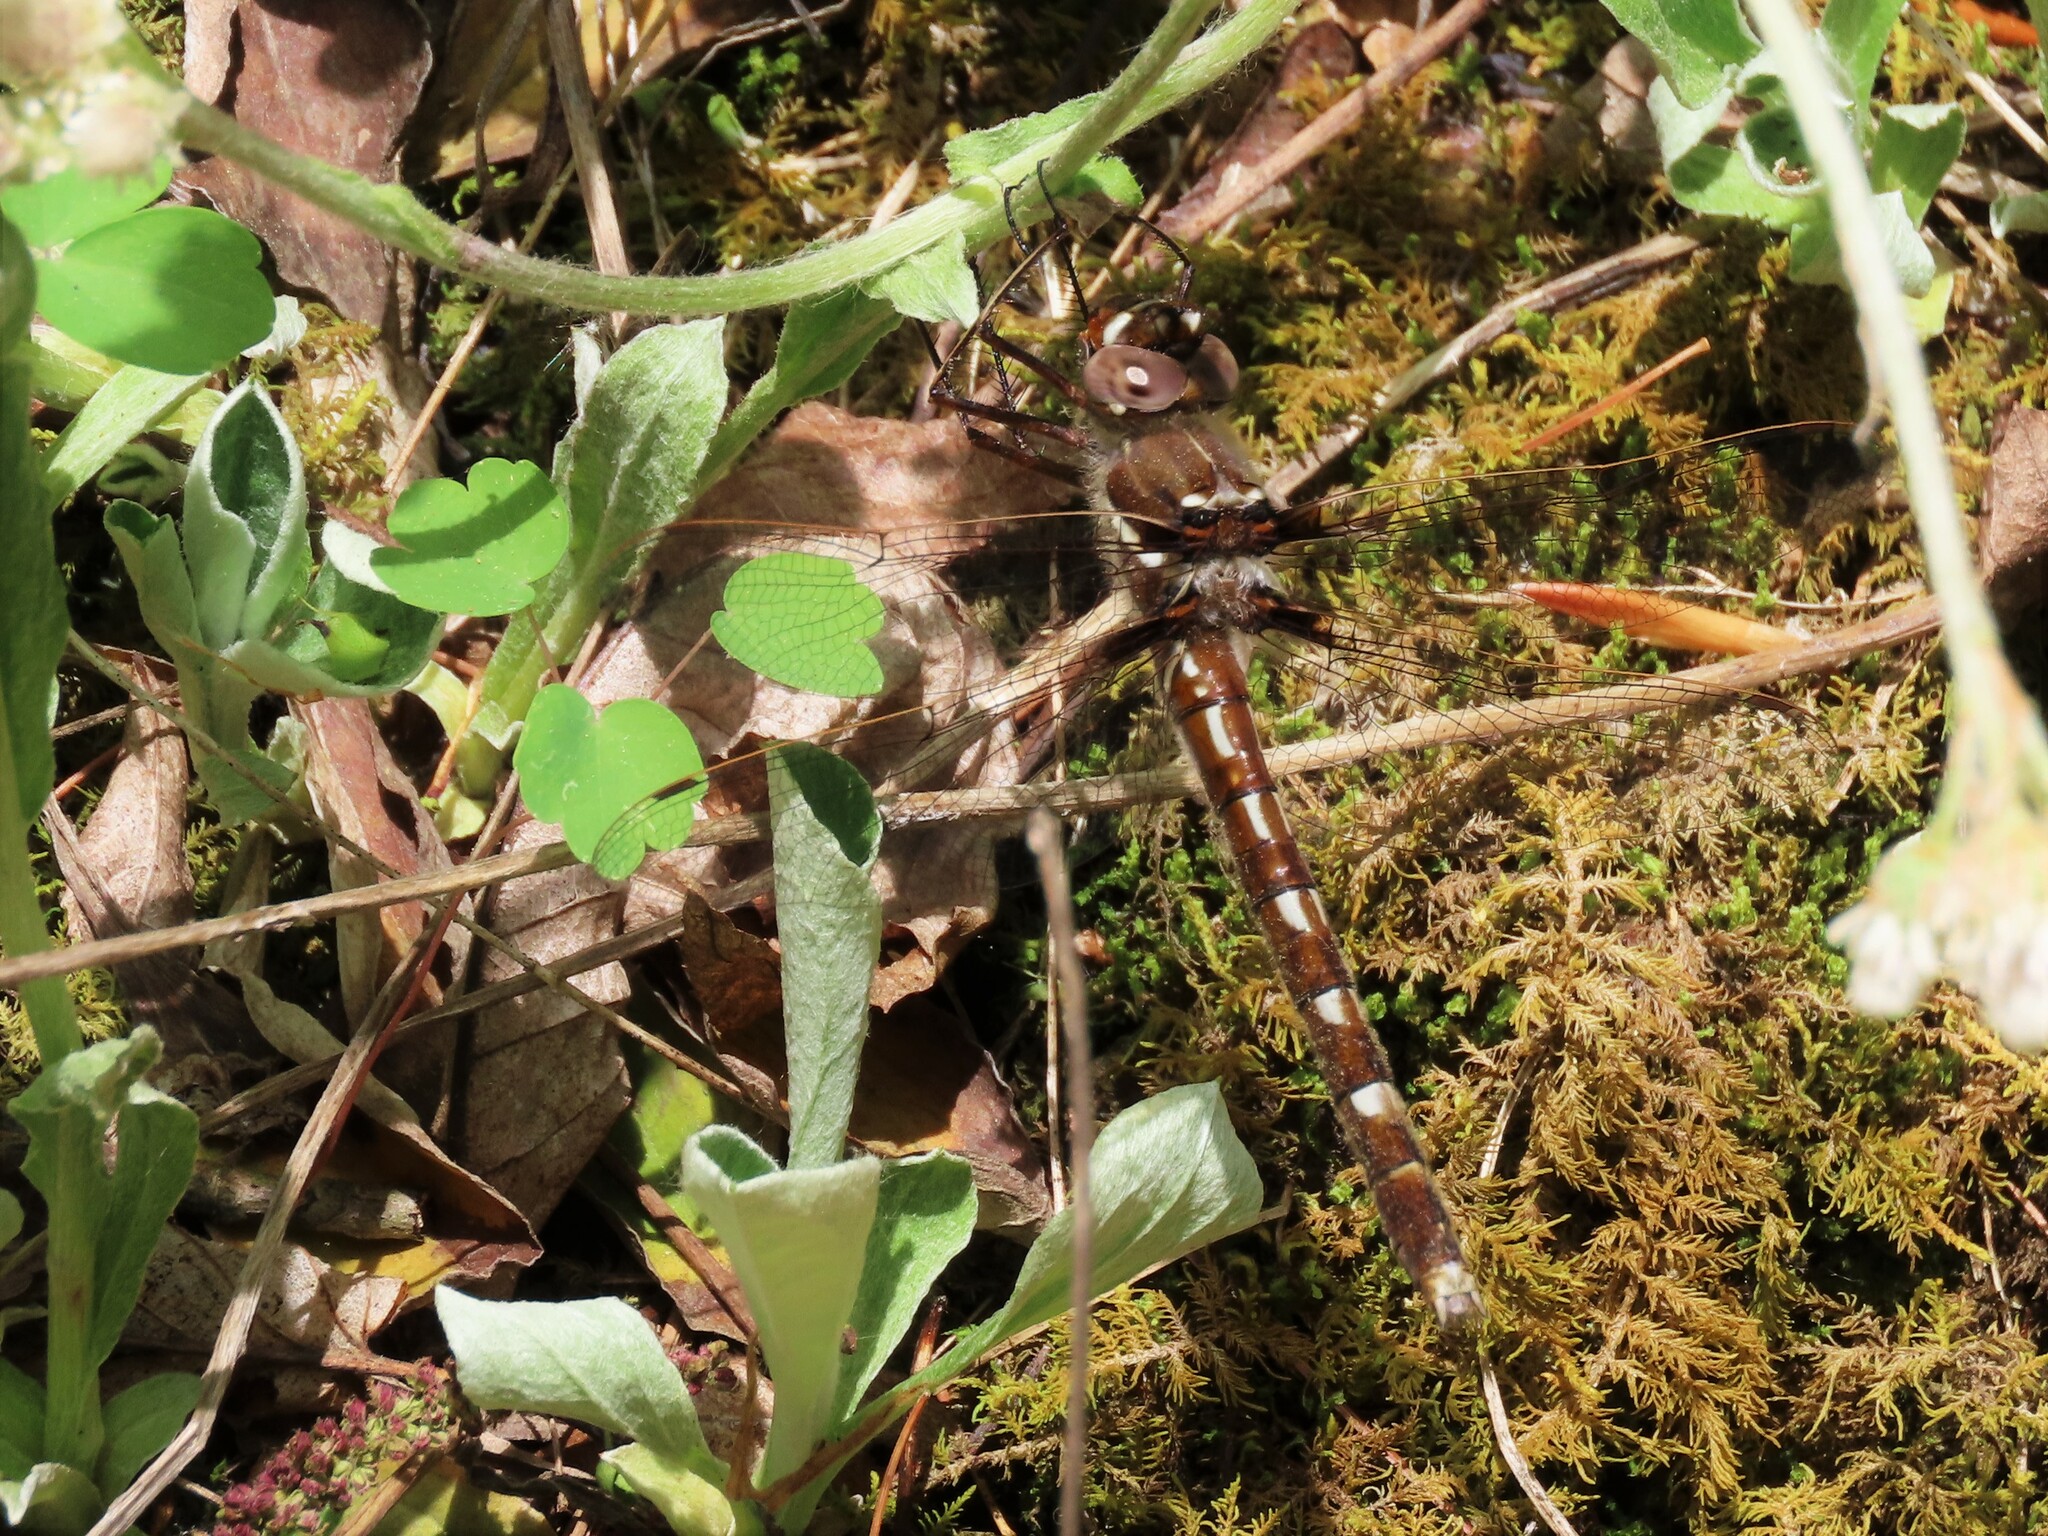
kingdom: Animalia
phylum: Arthropoda
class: Insecta
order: Odonata
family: Macromiidae
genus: Didymops
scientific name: Didymops transversa
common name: Stream cruiser
